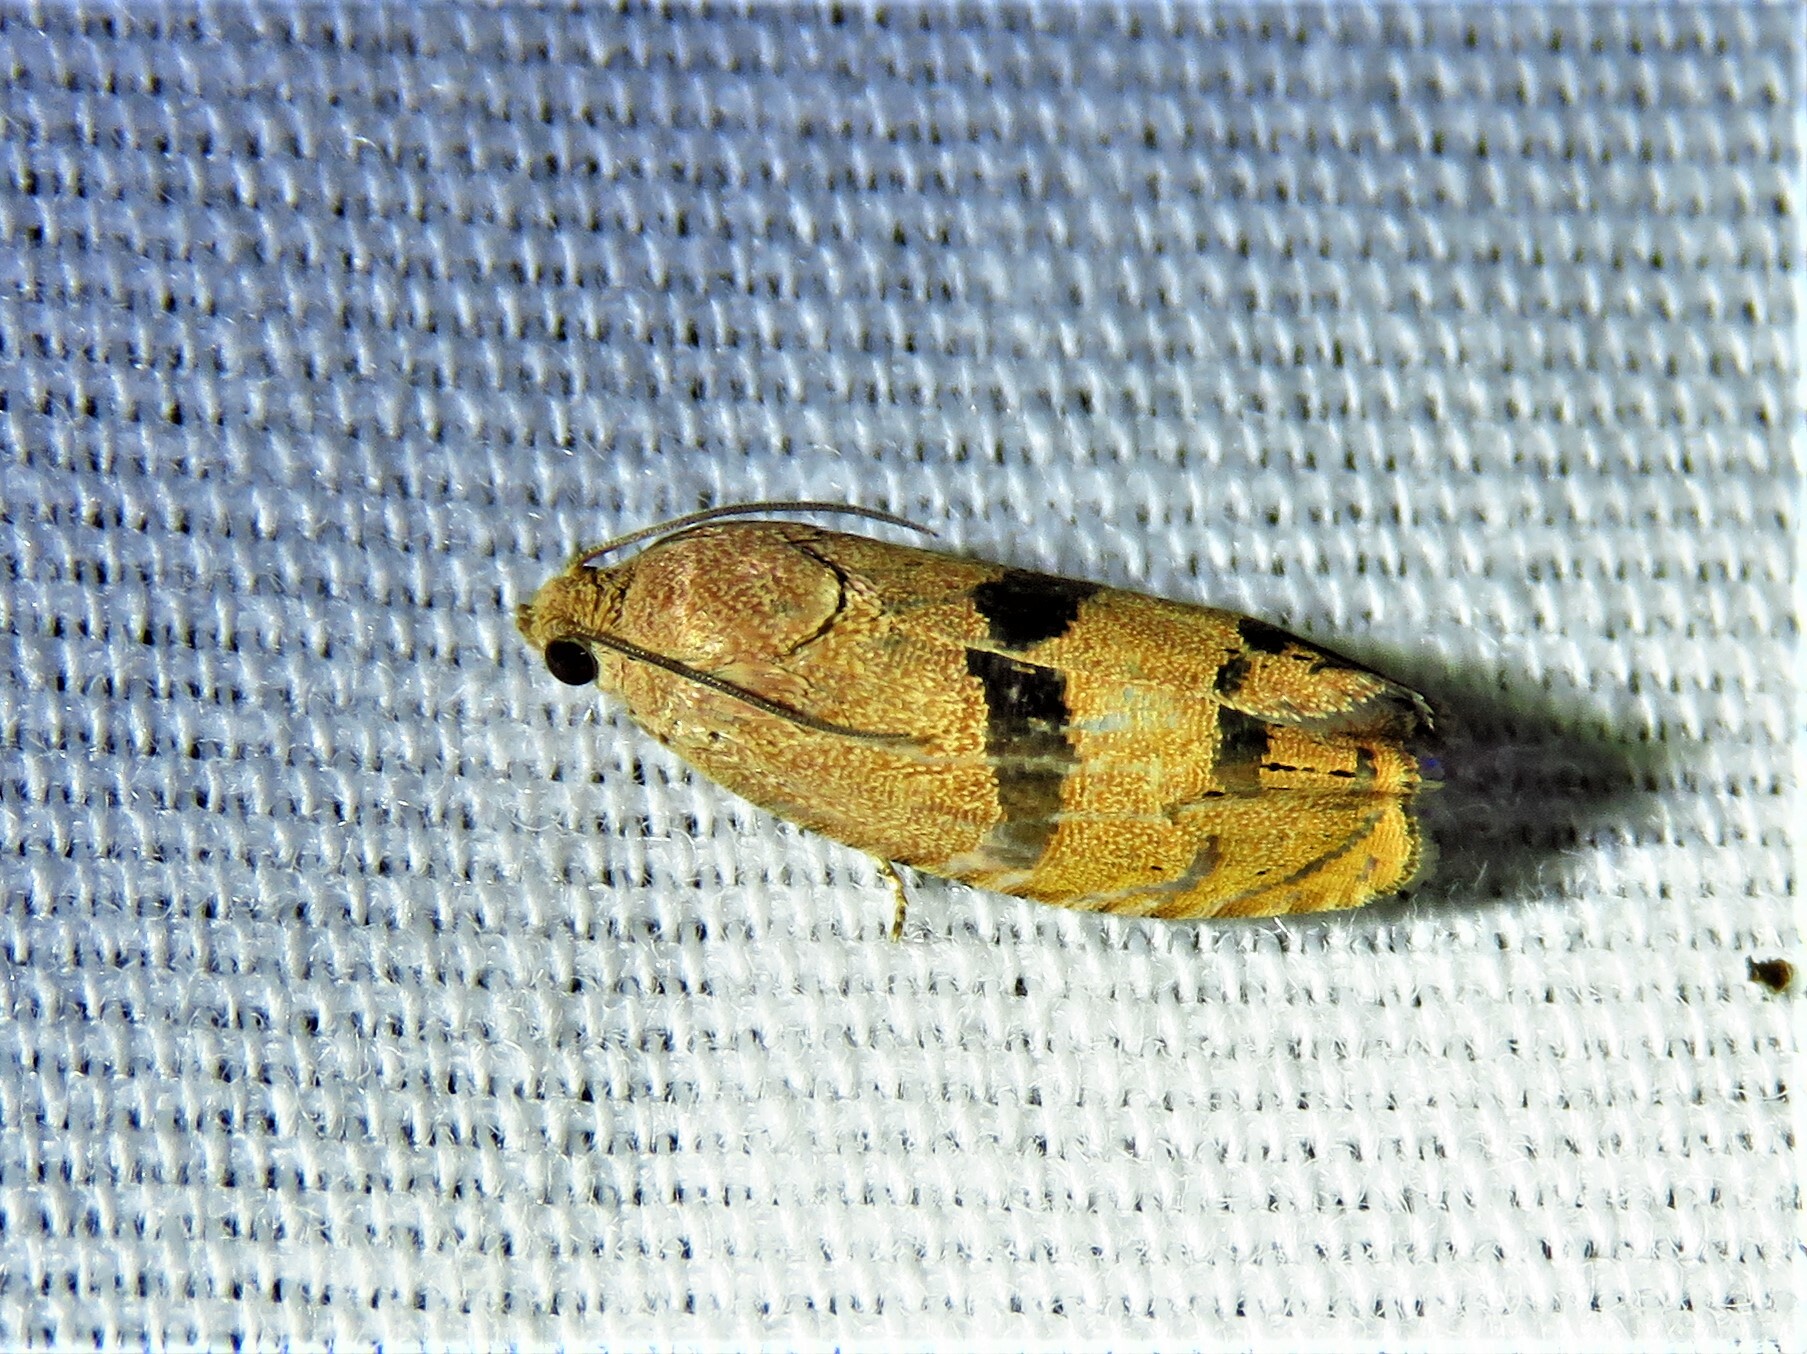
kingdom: Animalia
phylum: Arthropoda
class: Insecta
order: Lepidoptera
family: Tortricidae
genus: Cydia
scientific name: Cydia latiferreana
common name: Filbertworm moth
